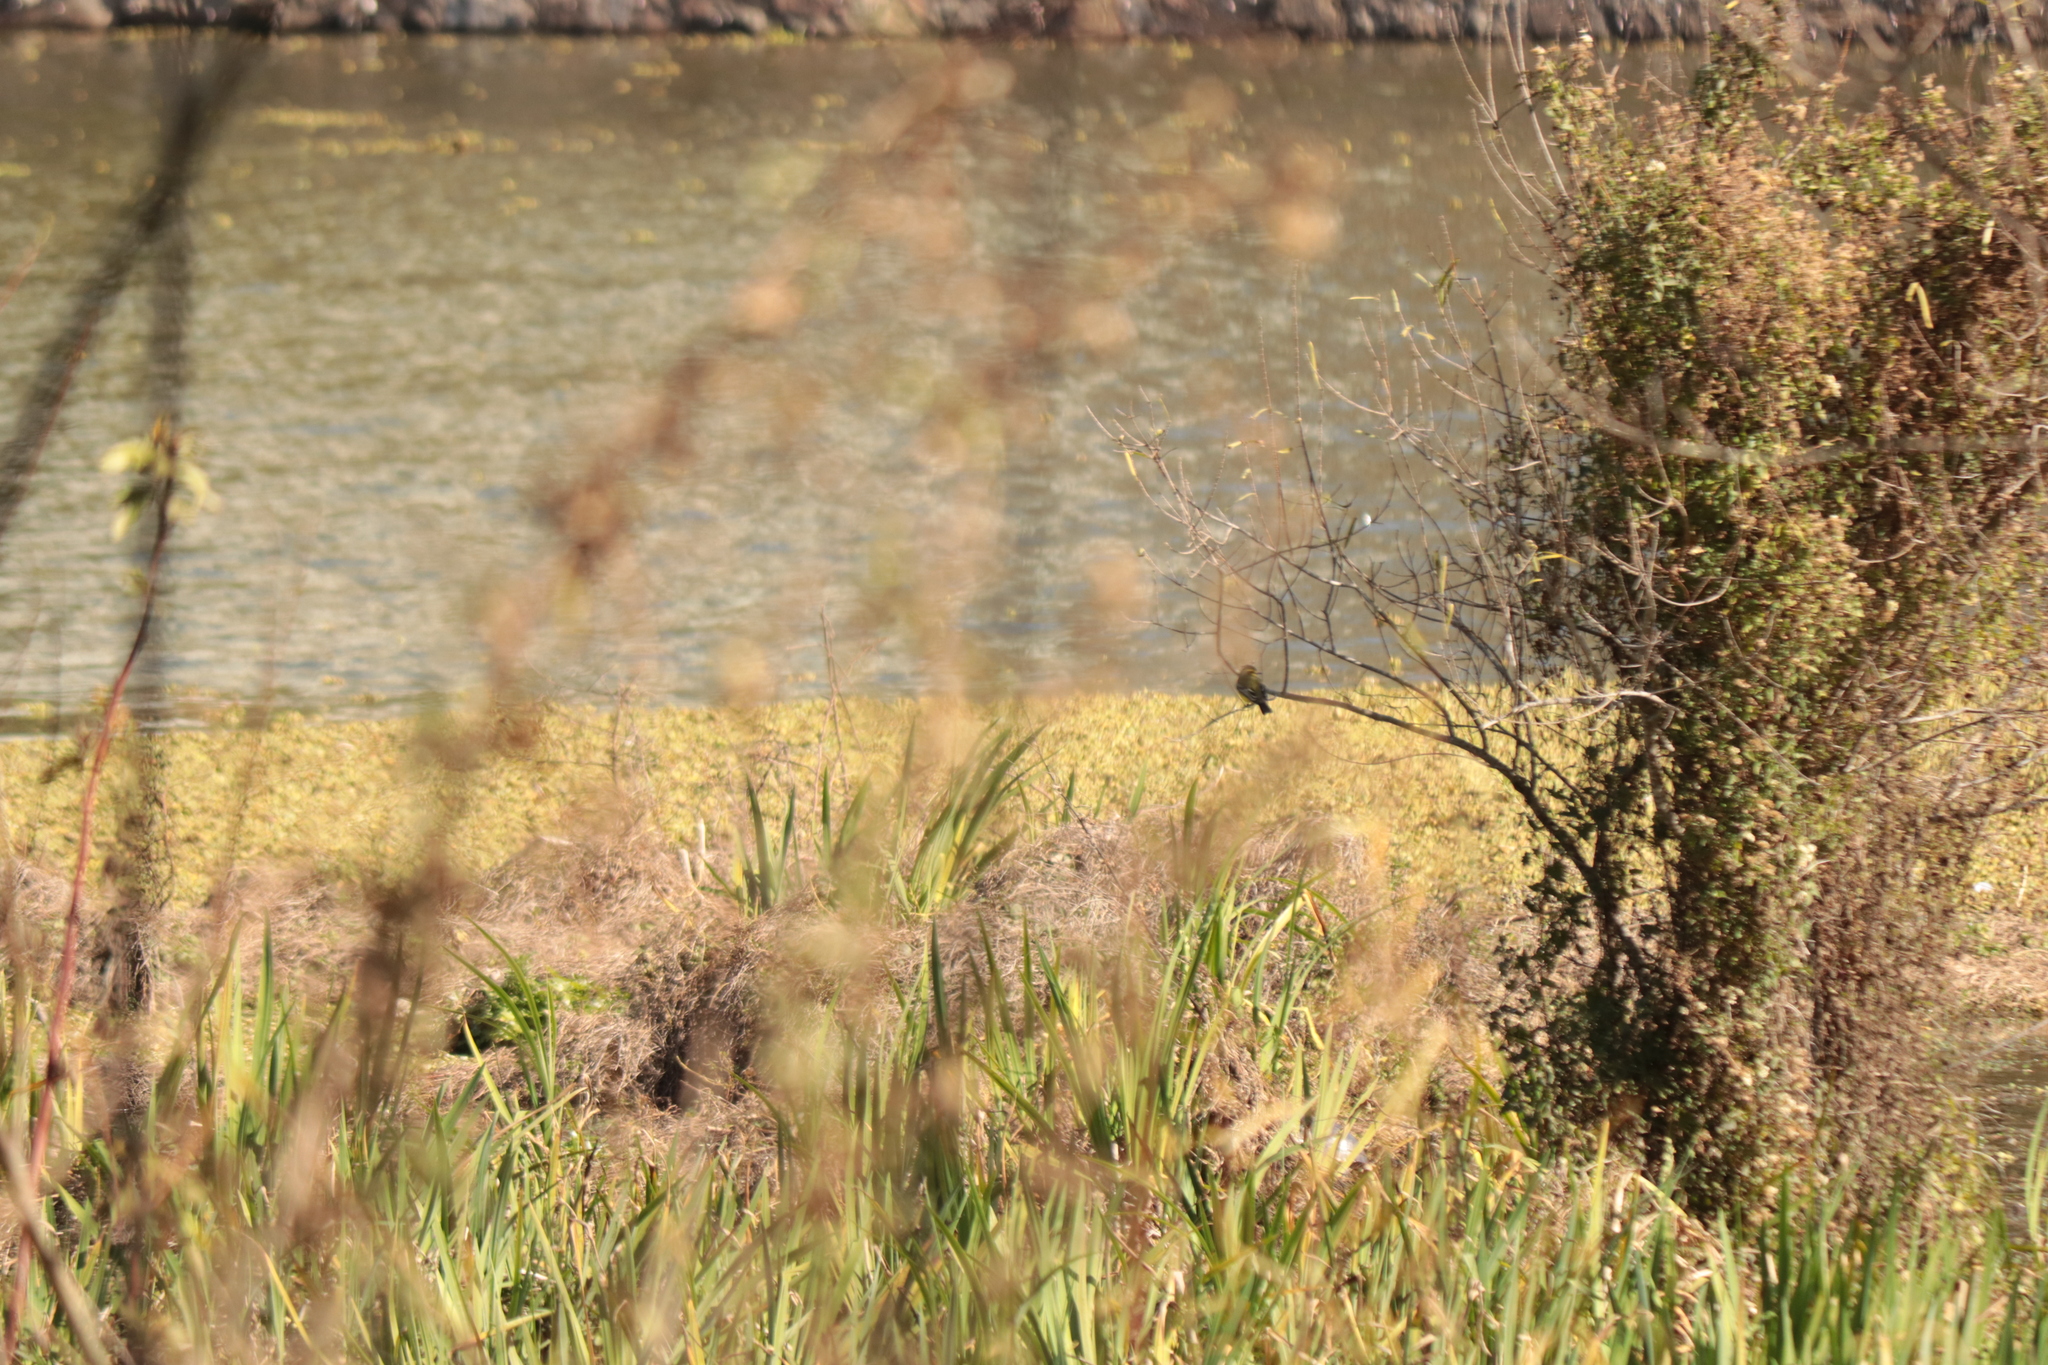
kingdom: Animalia
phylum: Chordata
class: Aves
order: Passeriformes
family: Tyrannidae
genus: Satrapa
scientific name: Satrapa icterophrys
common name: Yellow-browed tyrant
